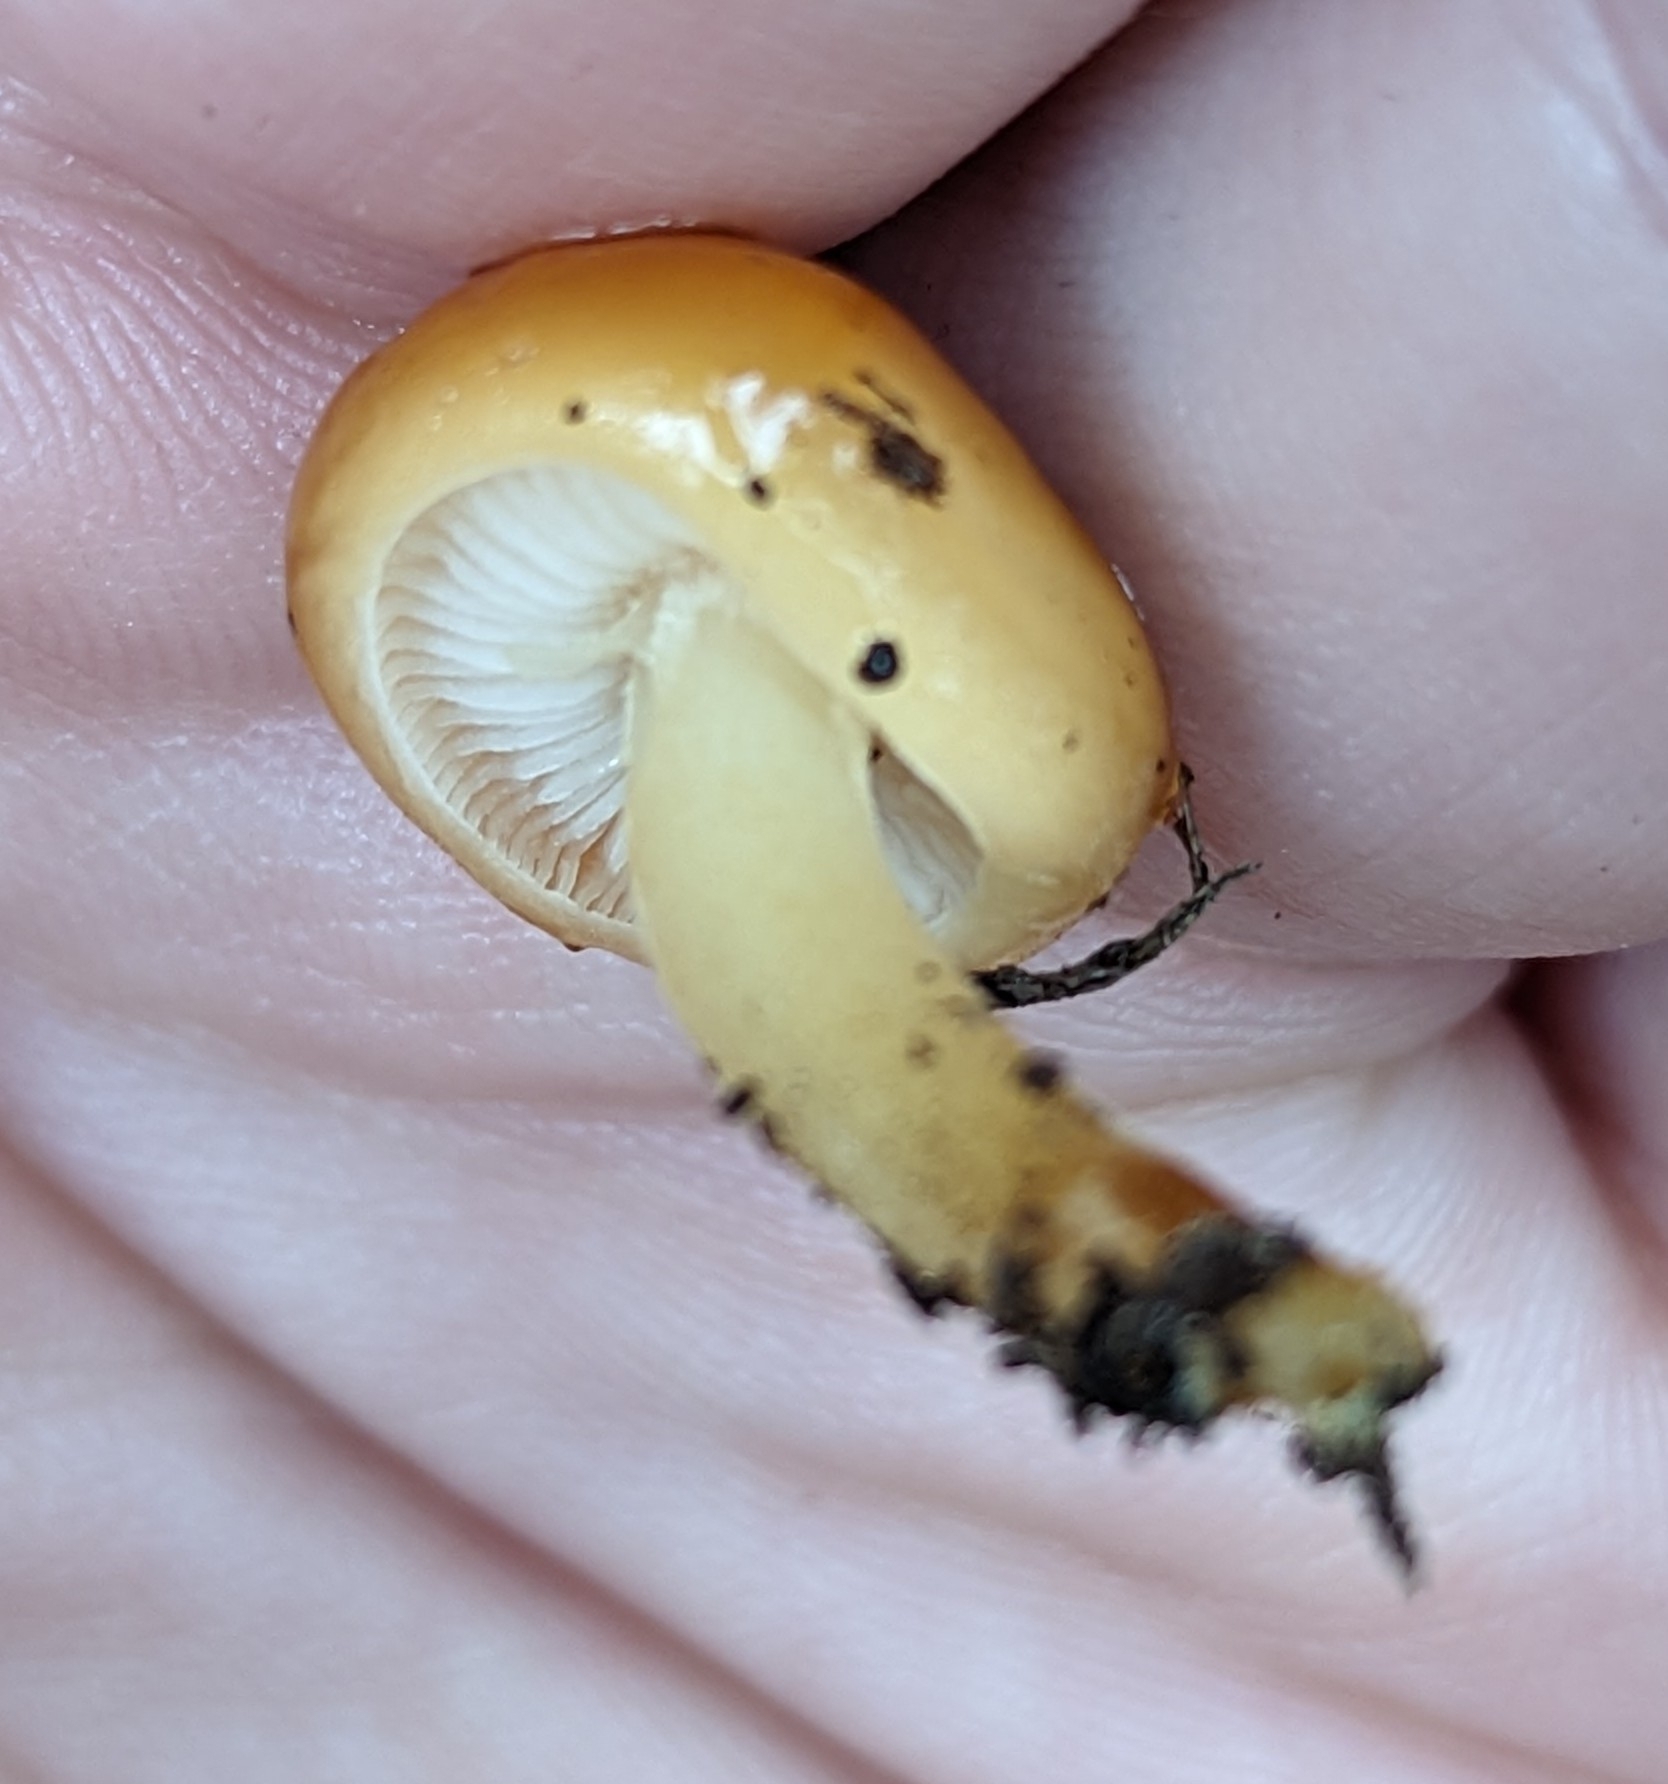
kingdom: Fungi
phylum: Basidiomycota
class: Agaricomycetes
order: Agaricales
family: Physalacriaceae
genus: Flammulina
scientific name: Flammulina velutipes
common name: Velvet shank
